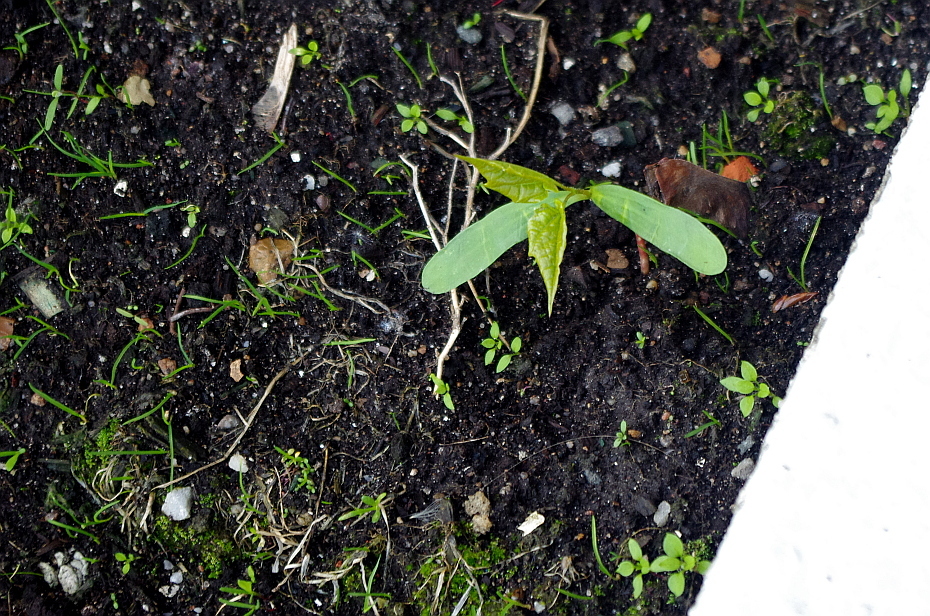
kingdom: Plantae
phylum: Tracheophyta
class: Magnoliopsida
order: Sapindales
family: Sapindaceae
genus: Acer
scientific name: Acer platanoides
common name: Norway maple
